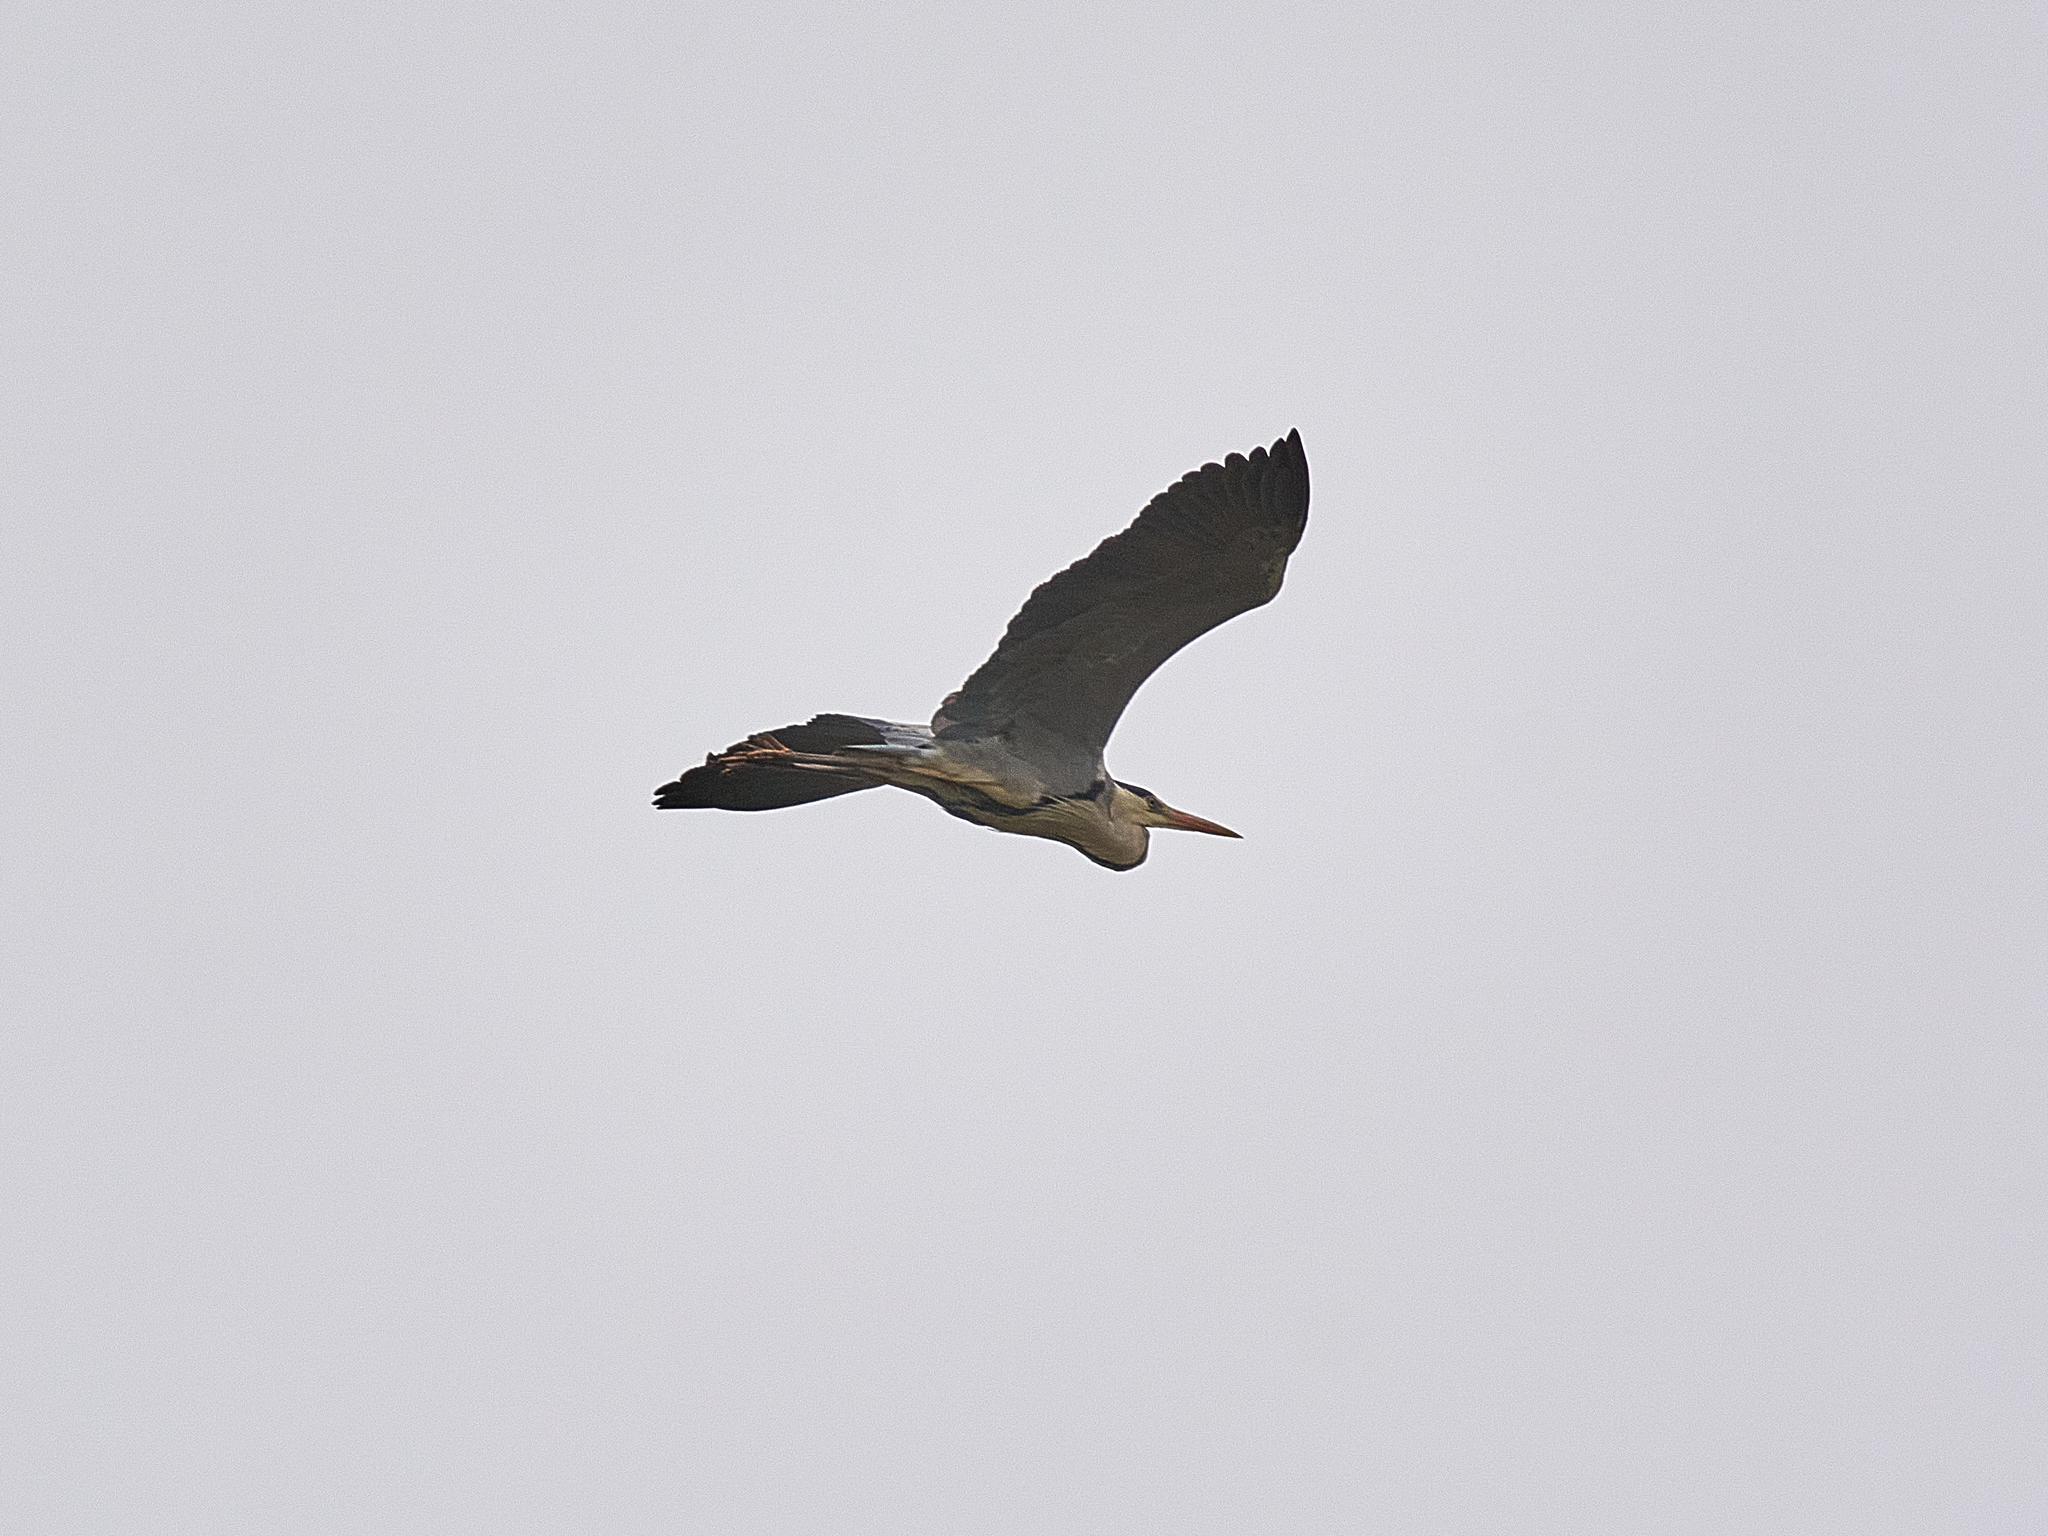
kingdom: Animalia
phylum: Chordata
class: Aves
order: Pelecaniformes
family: Ardeidae
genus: Ardea
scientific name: Ardea cinerea
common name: Grey heron
